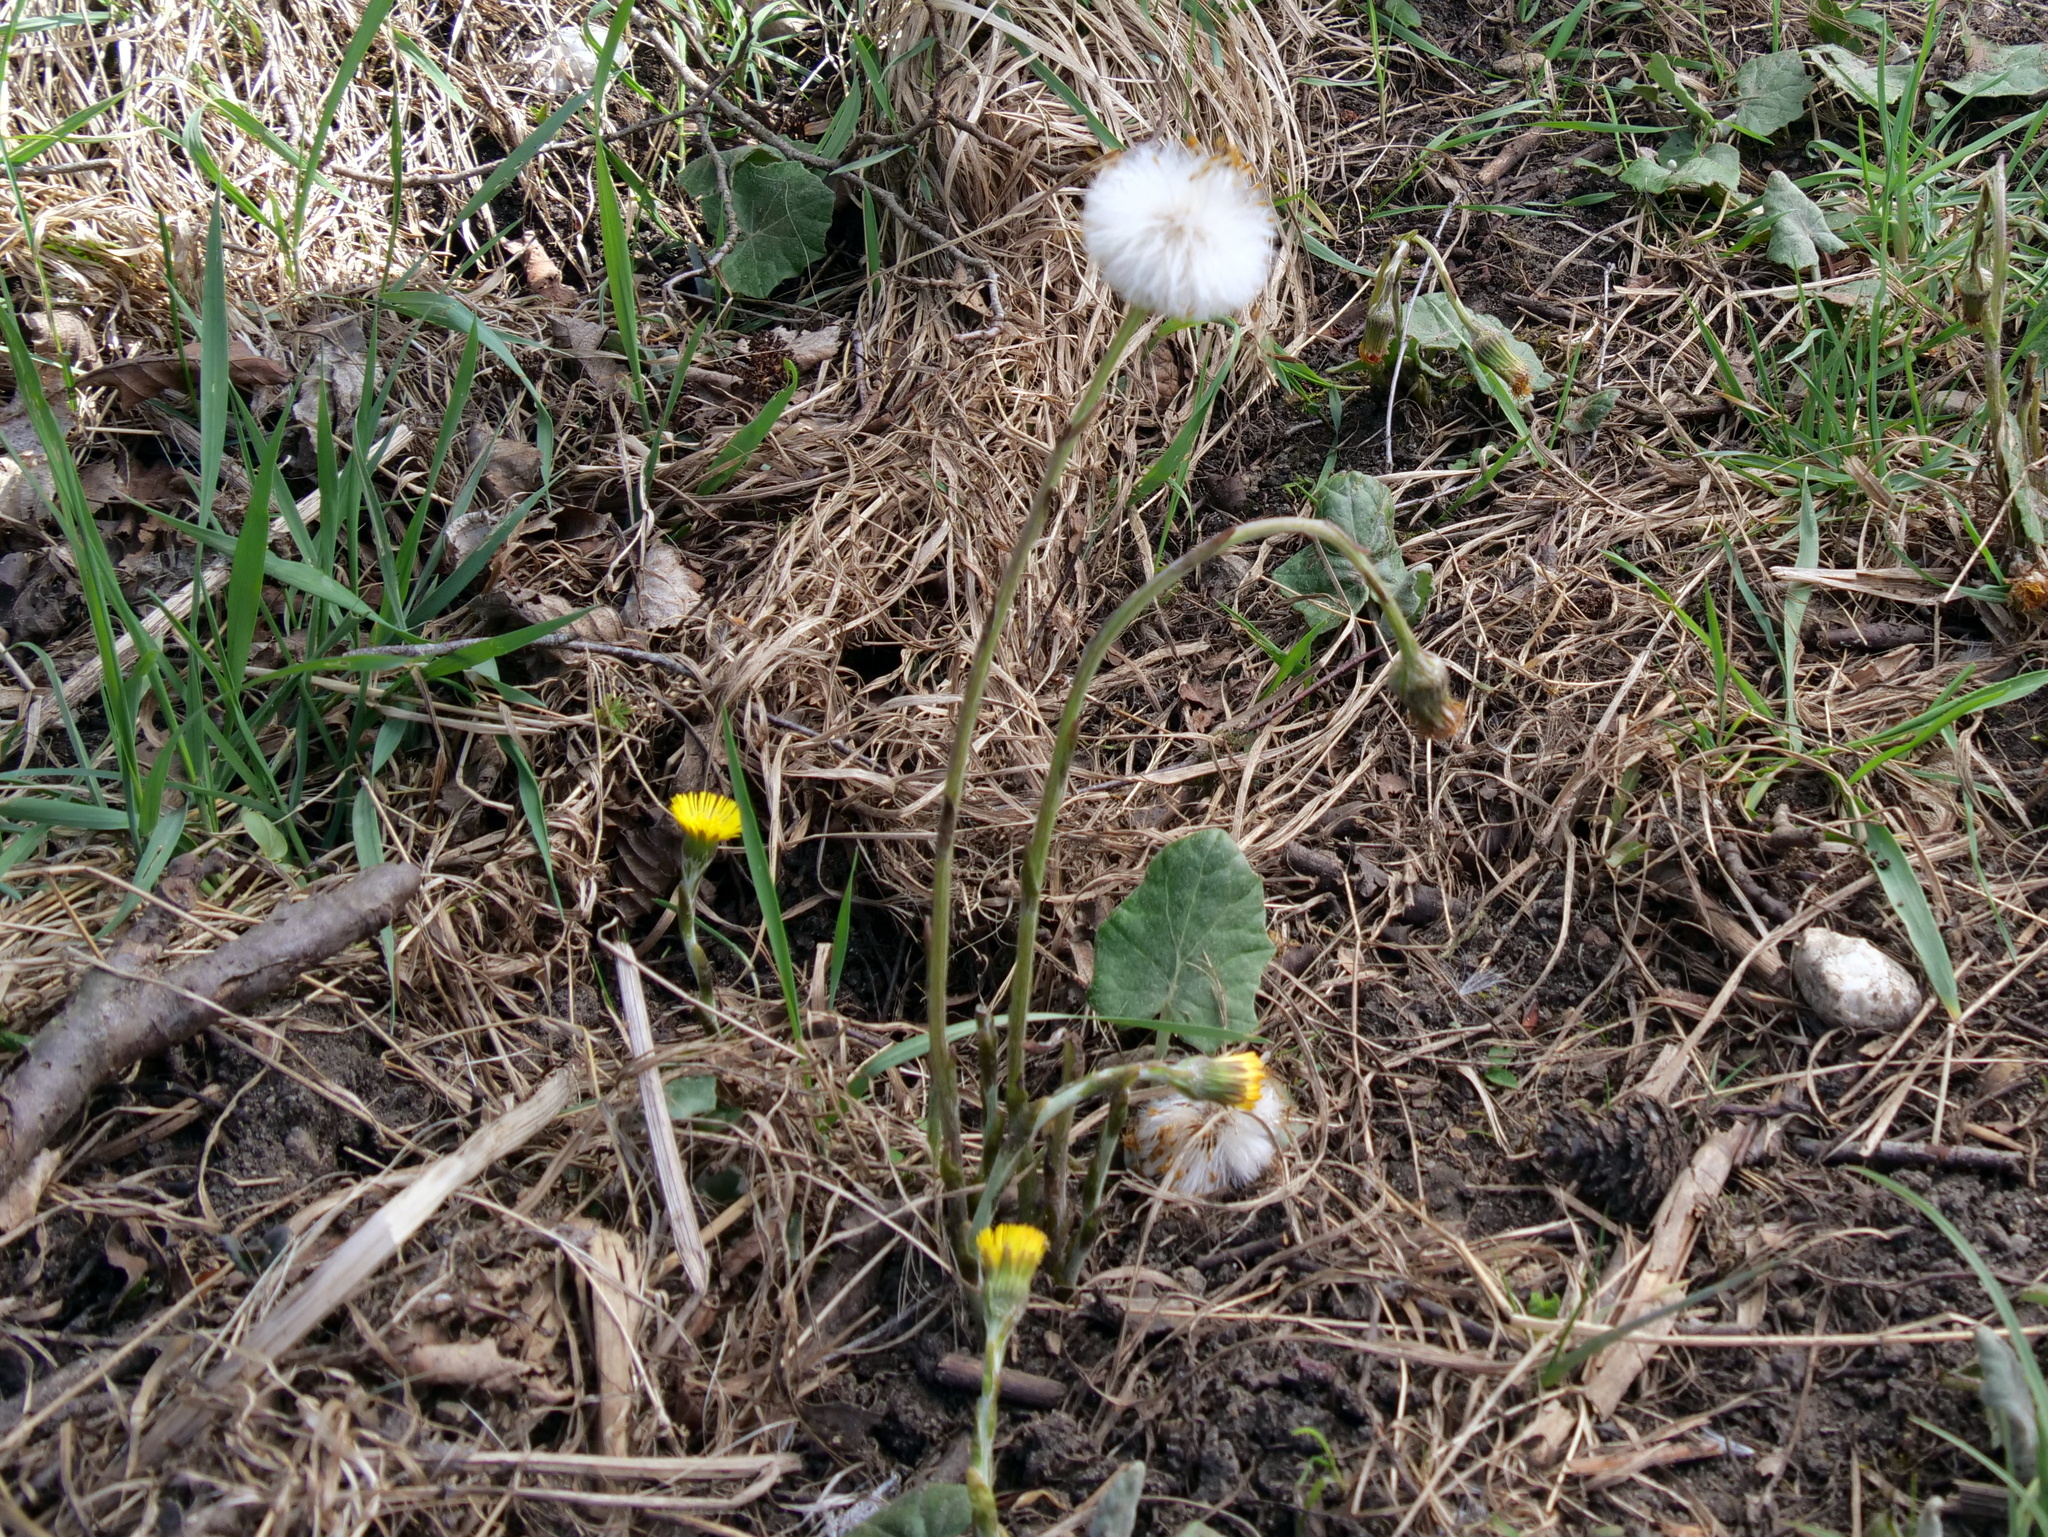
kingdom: Plantae
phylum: Tracheophyta
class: Magnoliopsida
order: Asterales
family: Asteraceae
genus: Tussilago
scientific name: Tussilago farfara
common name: Coltsfoot
